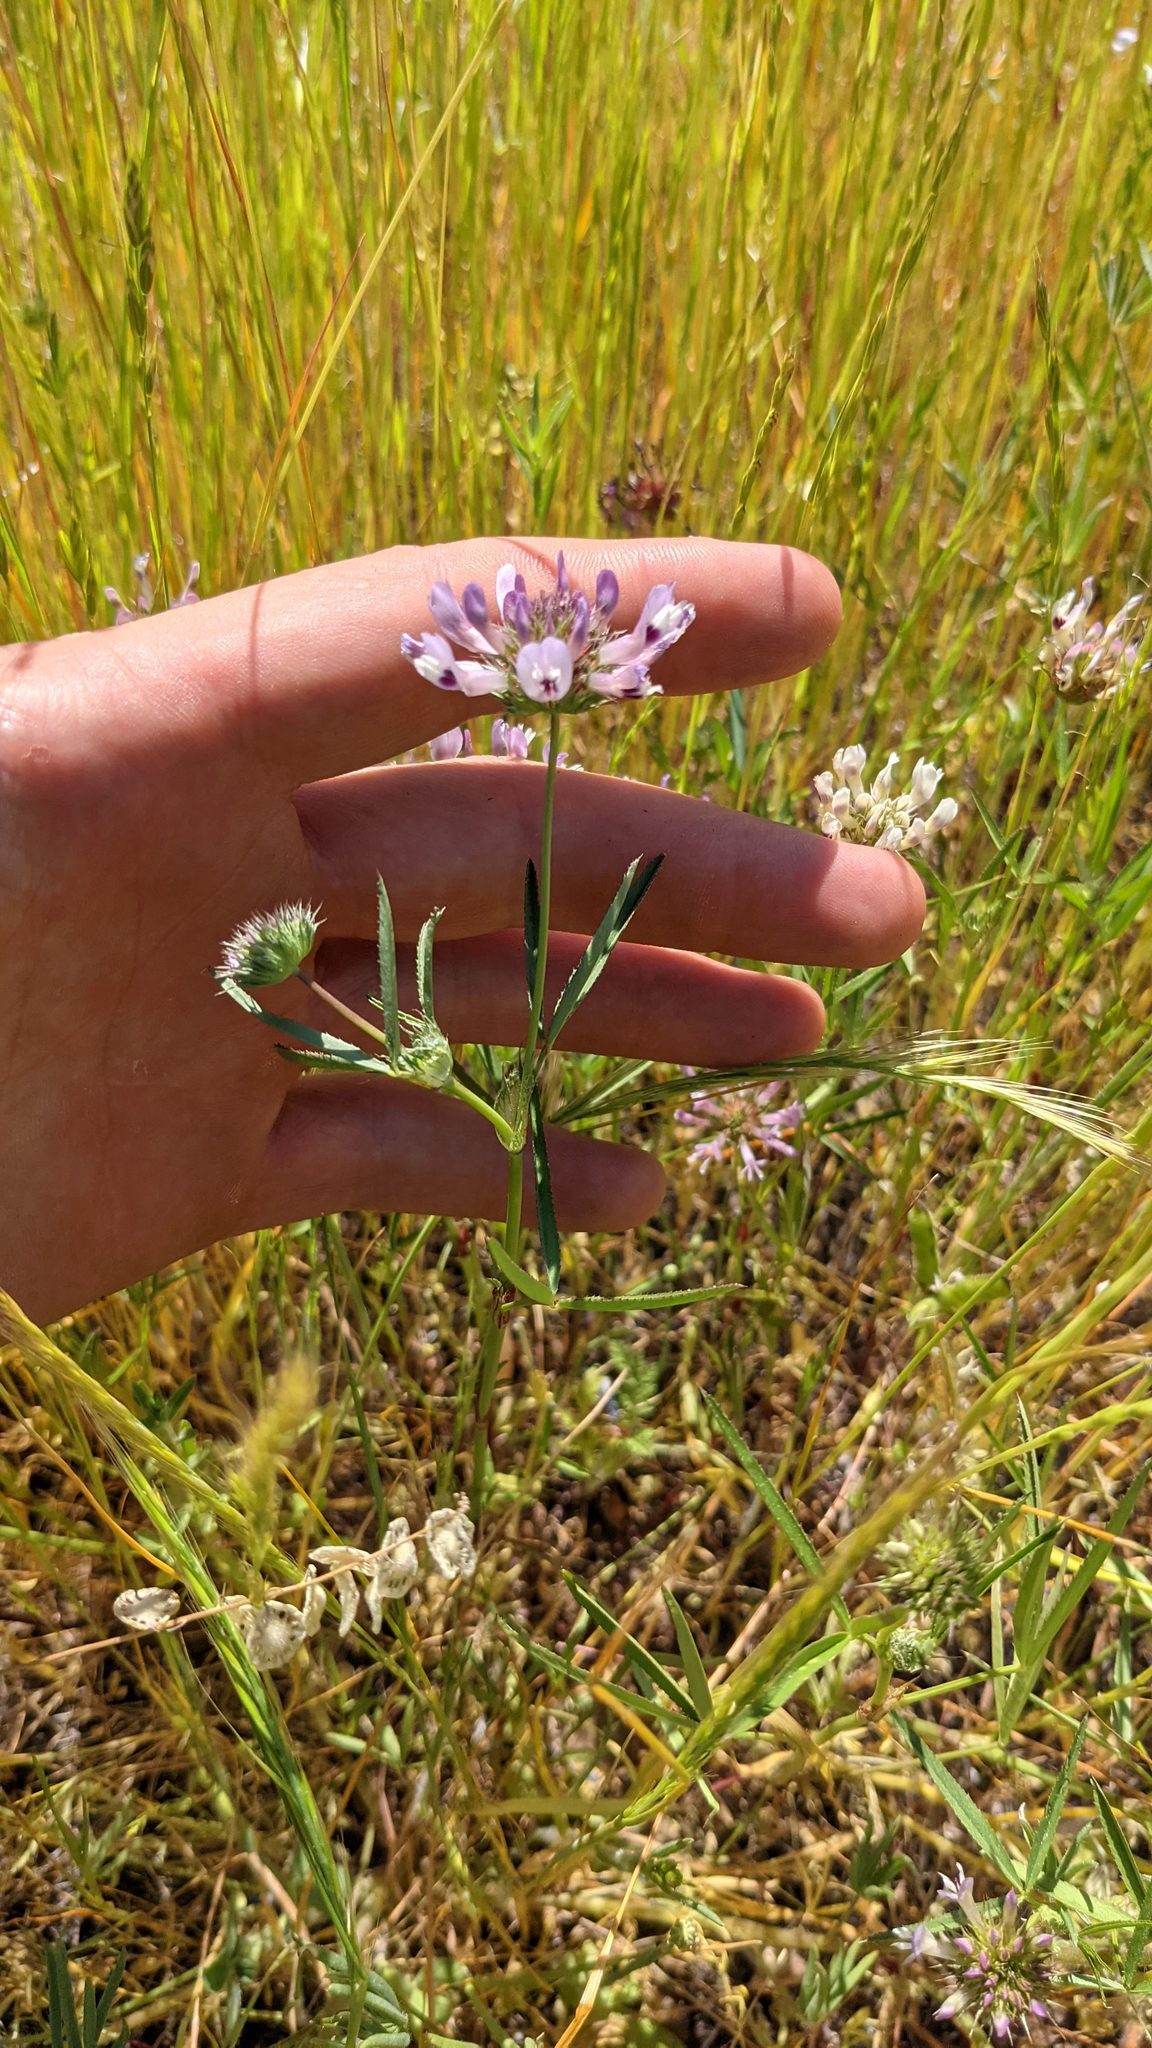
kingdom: Plantae
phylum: Tracheophyta
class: Magnoliopsida
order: Fabales
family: Fabaceae
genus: Trifolium
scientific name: Trifolium willdenovii
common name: Tomcat clover
